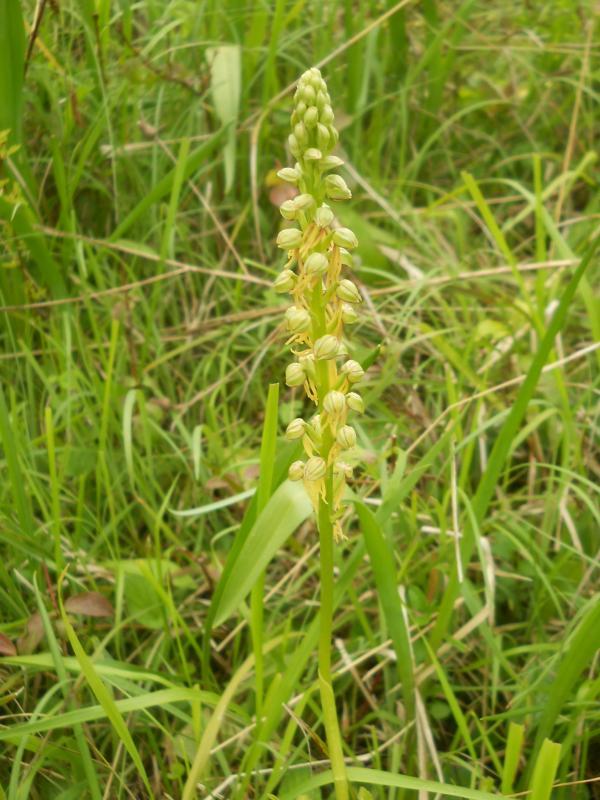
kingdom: Plantae
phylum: Tracheophyta
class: Liliopsida
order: Asparagales
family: Orchidaceae
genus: Orchis
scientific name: Orchis anthropophora
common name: Man orchid
